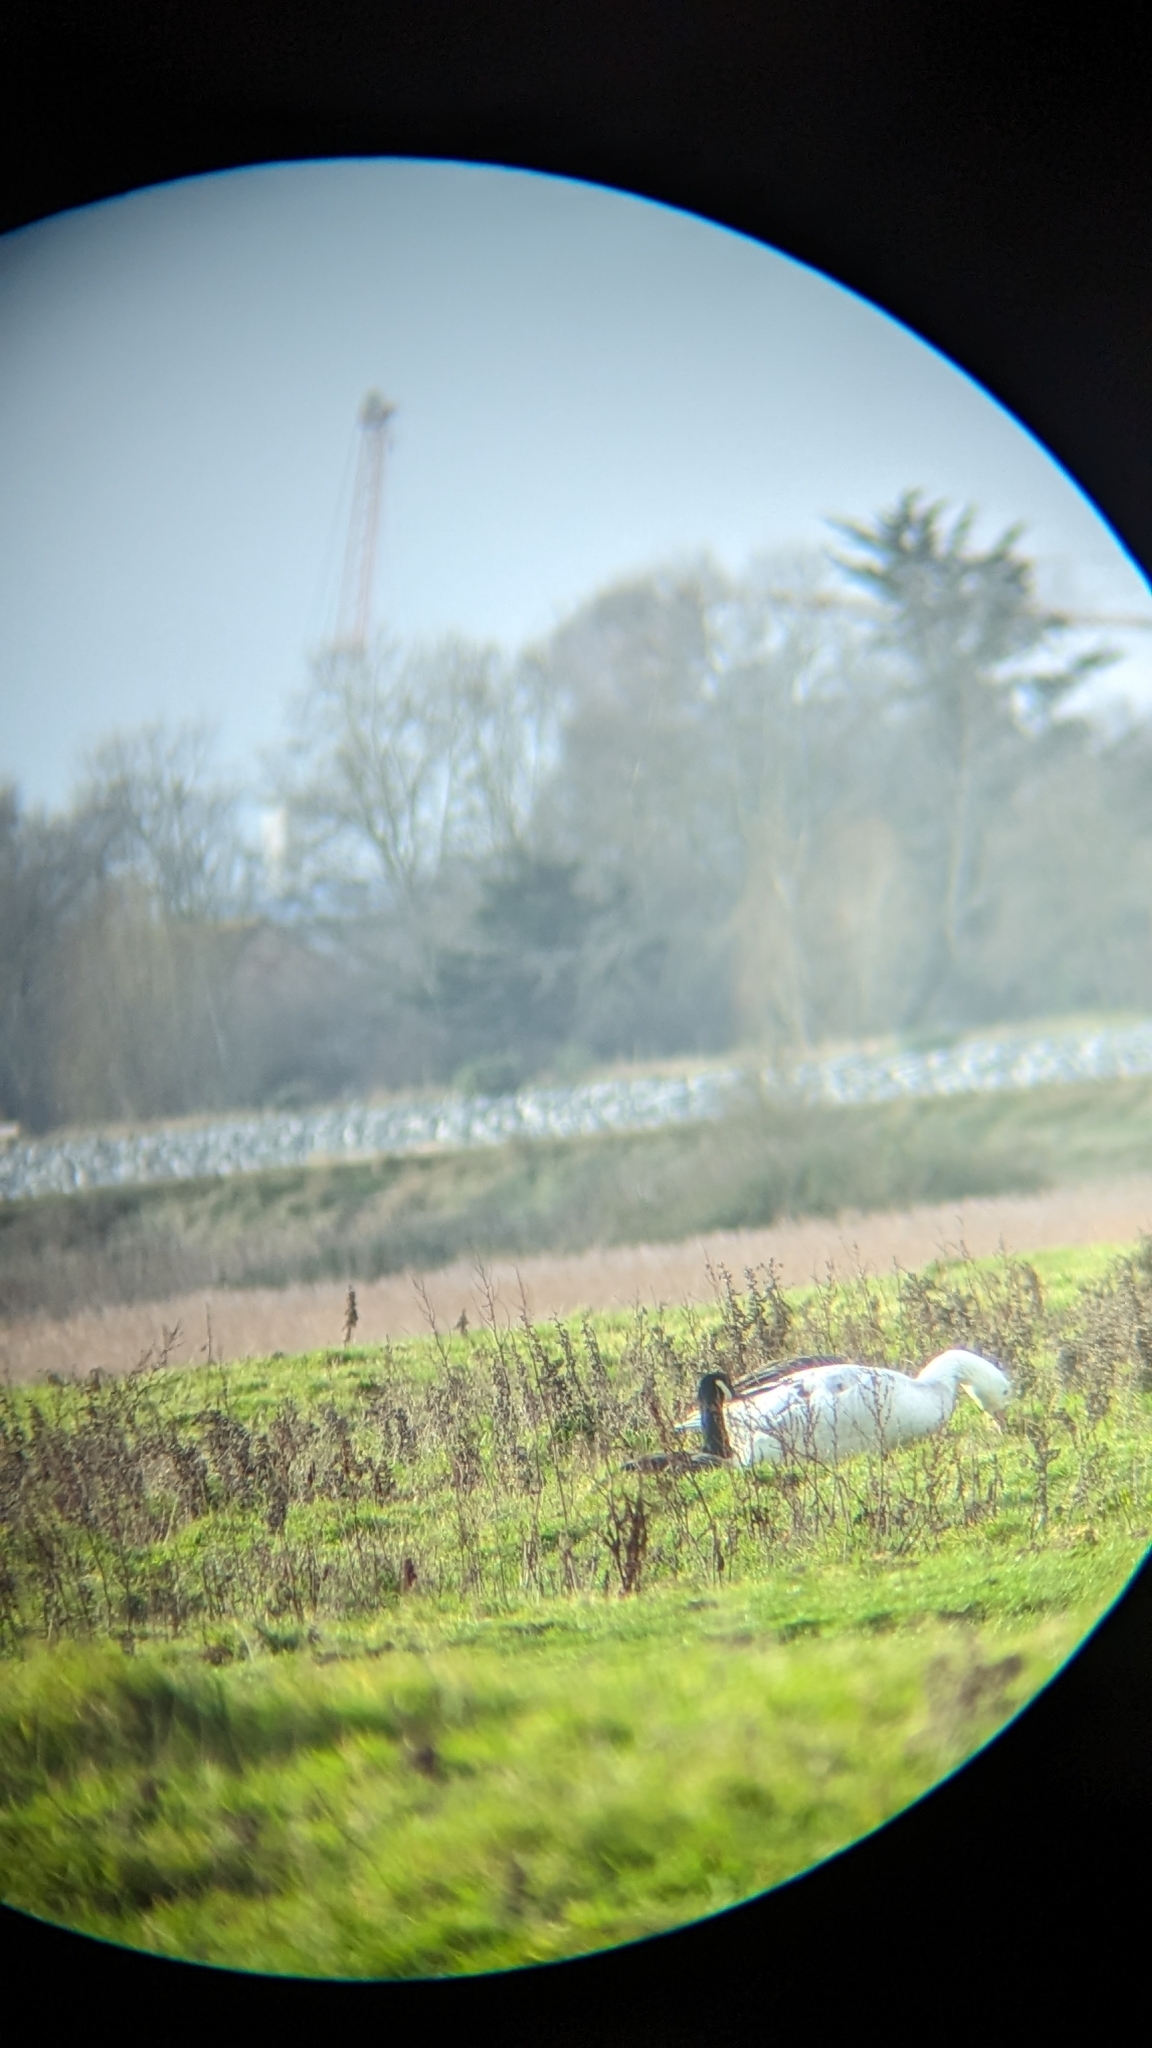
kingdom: Animalia
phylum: Chordata
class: Aves
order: Anseriformes
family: Anatidae
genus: Anser
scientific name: Anser anser
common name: Greylag goose
